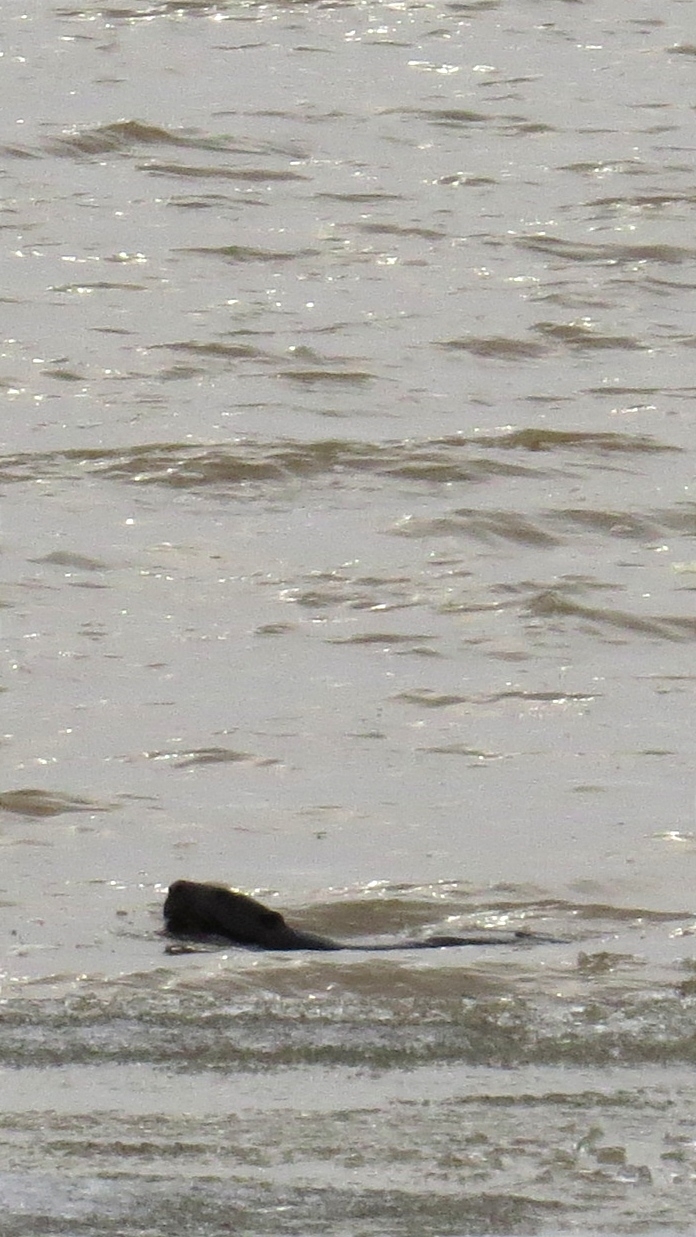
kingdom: Animalia
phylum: Chordata
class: Mammalia
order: Rodentia
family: Castoridae
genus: Castor
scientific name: Castor fiber
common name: Eurasian beaver
